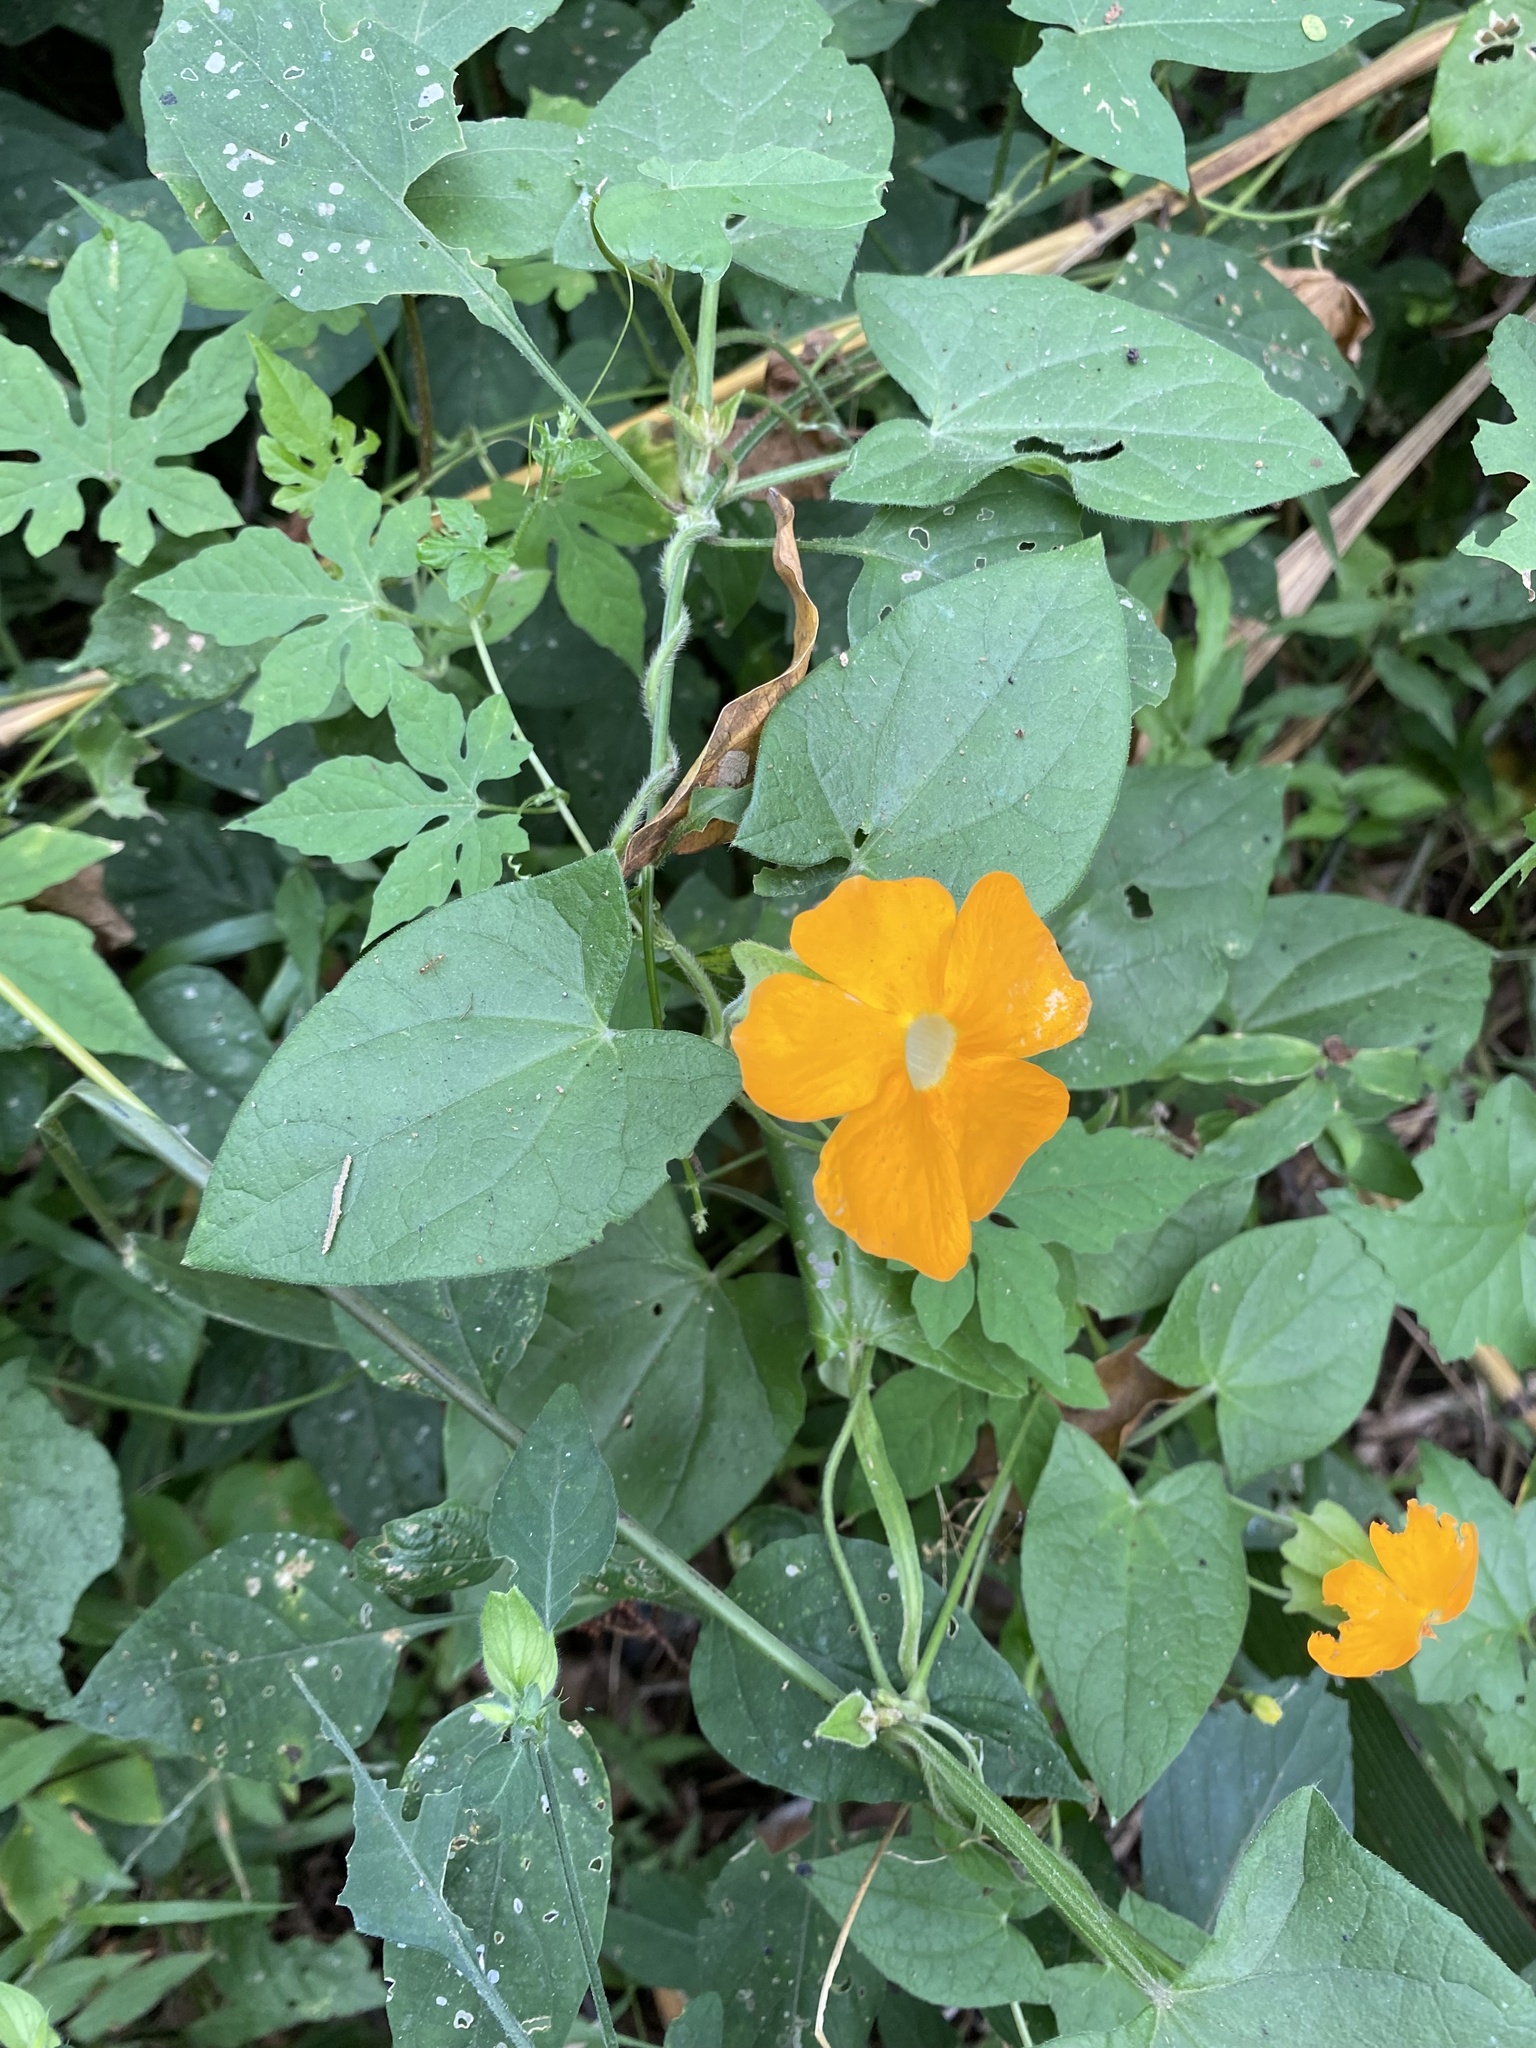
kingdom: Plantae
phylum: Tracheophyta
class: Magnoliopsida
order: Lamiales
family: Acanthaceae
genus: Thunbergia
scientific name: Thunbergia alata
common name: Blackeyed susan vine
